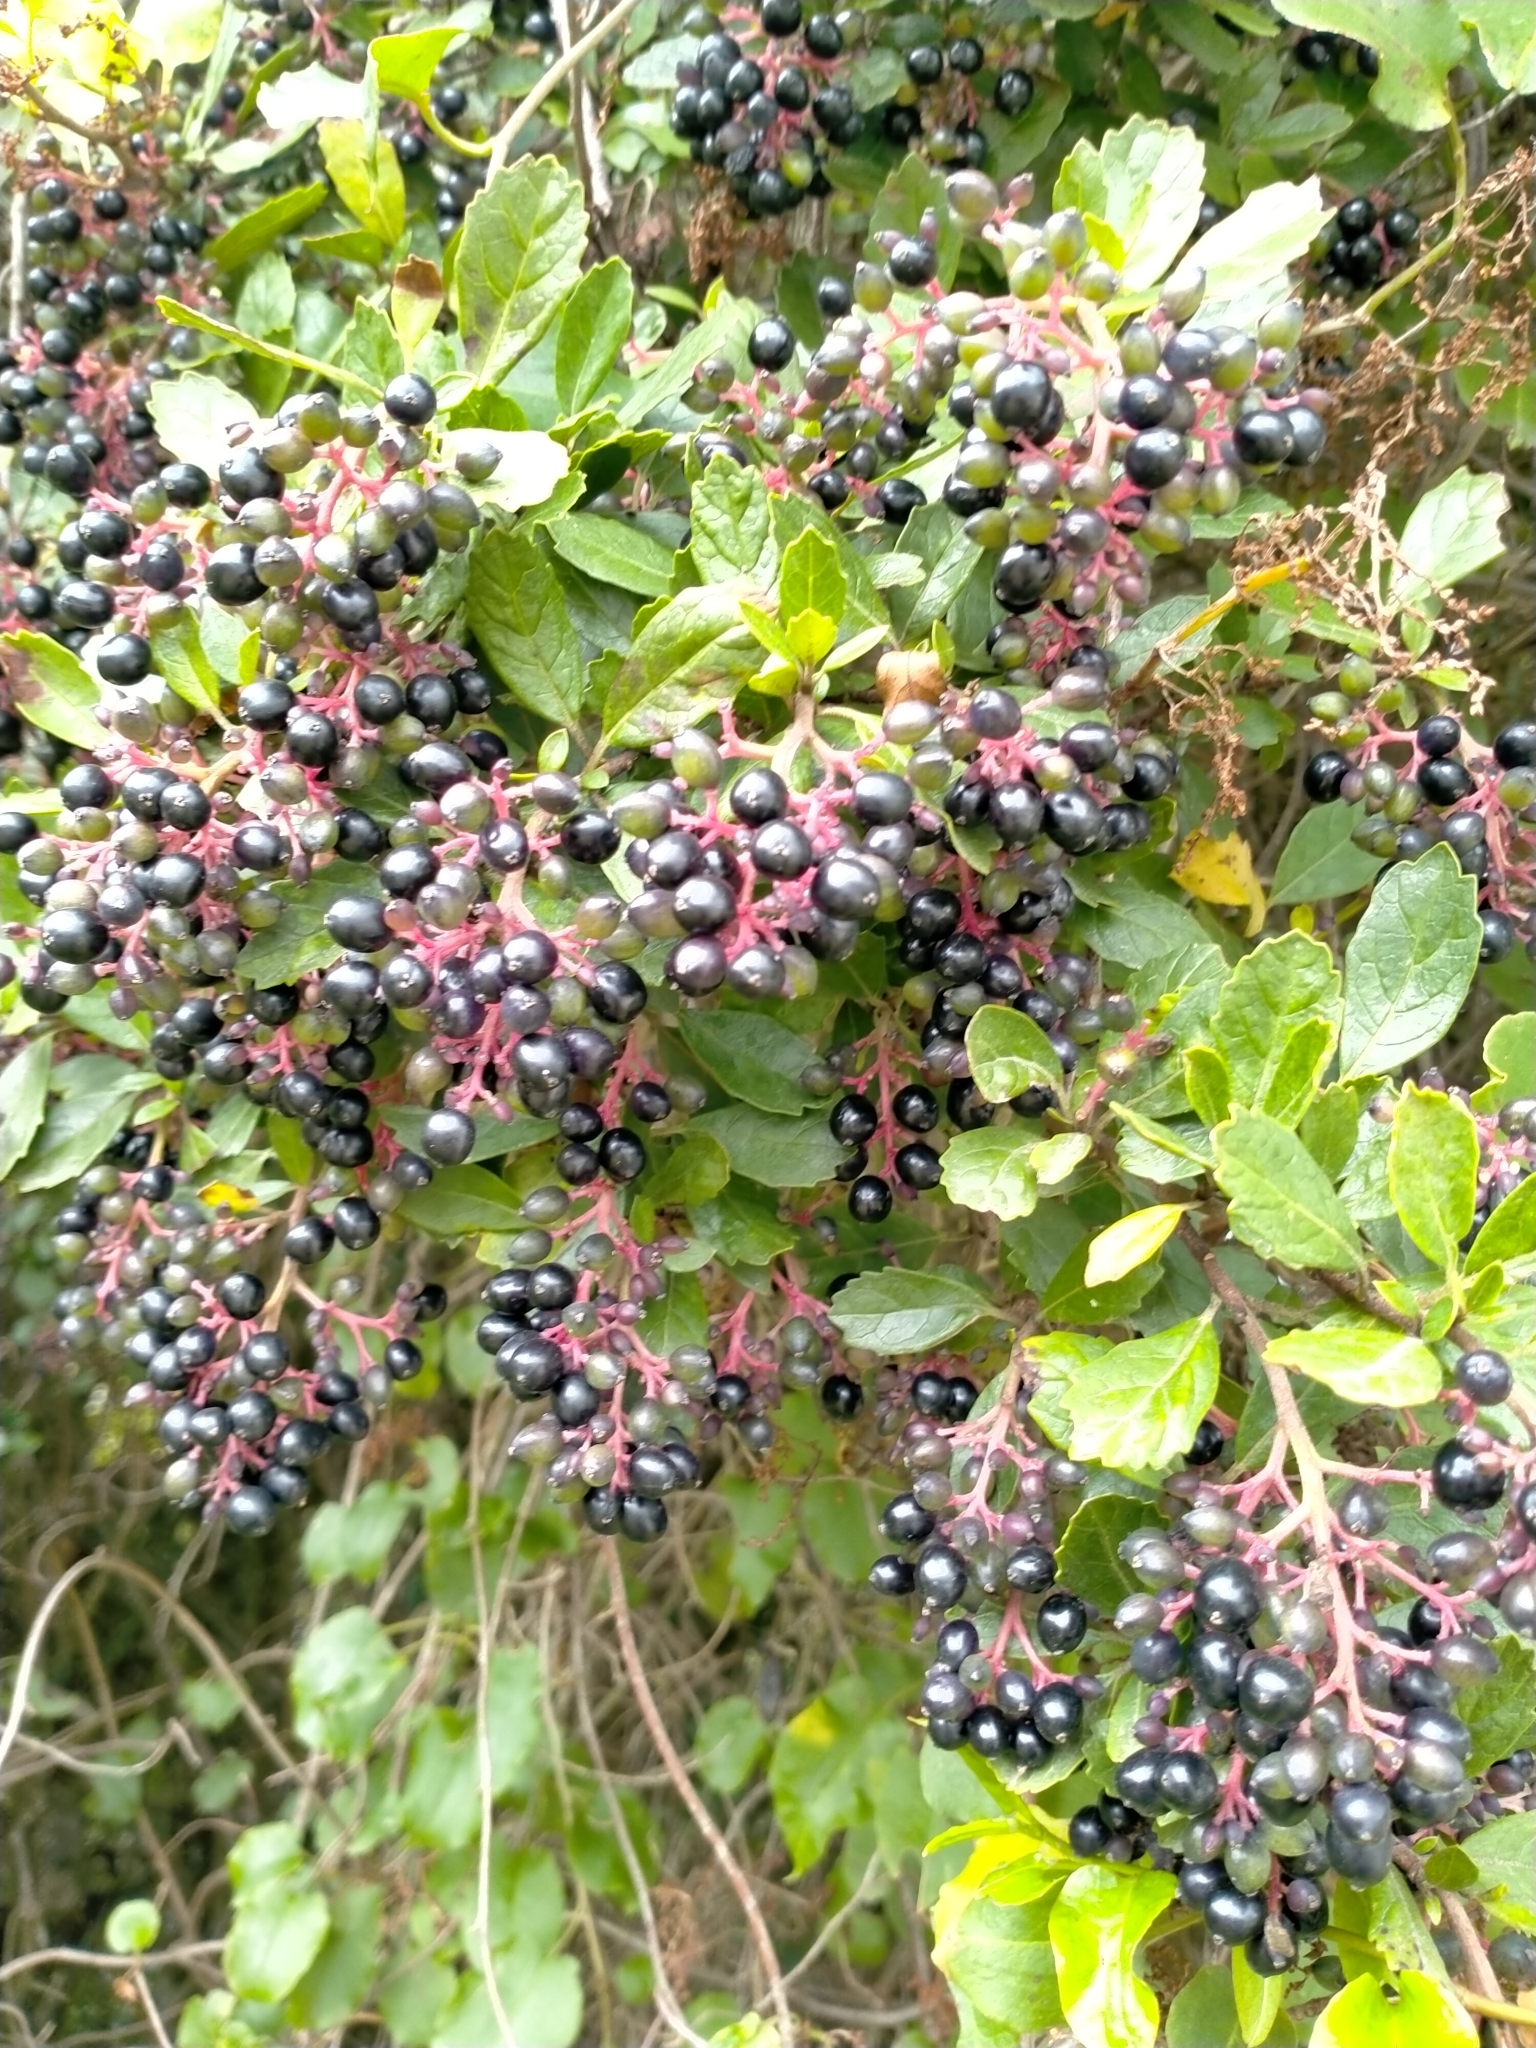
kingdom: Plantae
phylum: Tracheophyta
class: Magnoliopsida
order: Apiales
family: Pennantiaceae
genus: Pennantia
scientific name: Pennantia corymbosa
